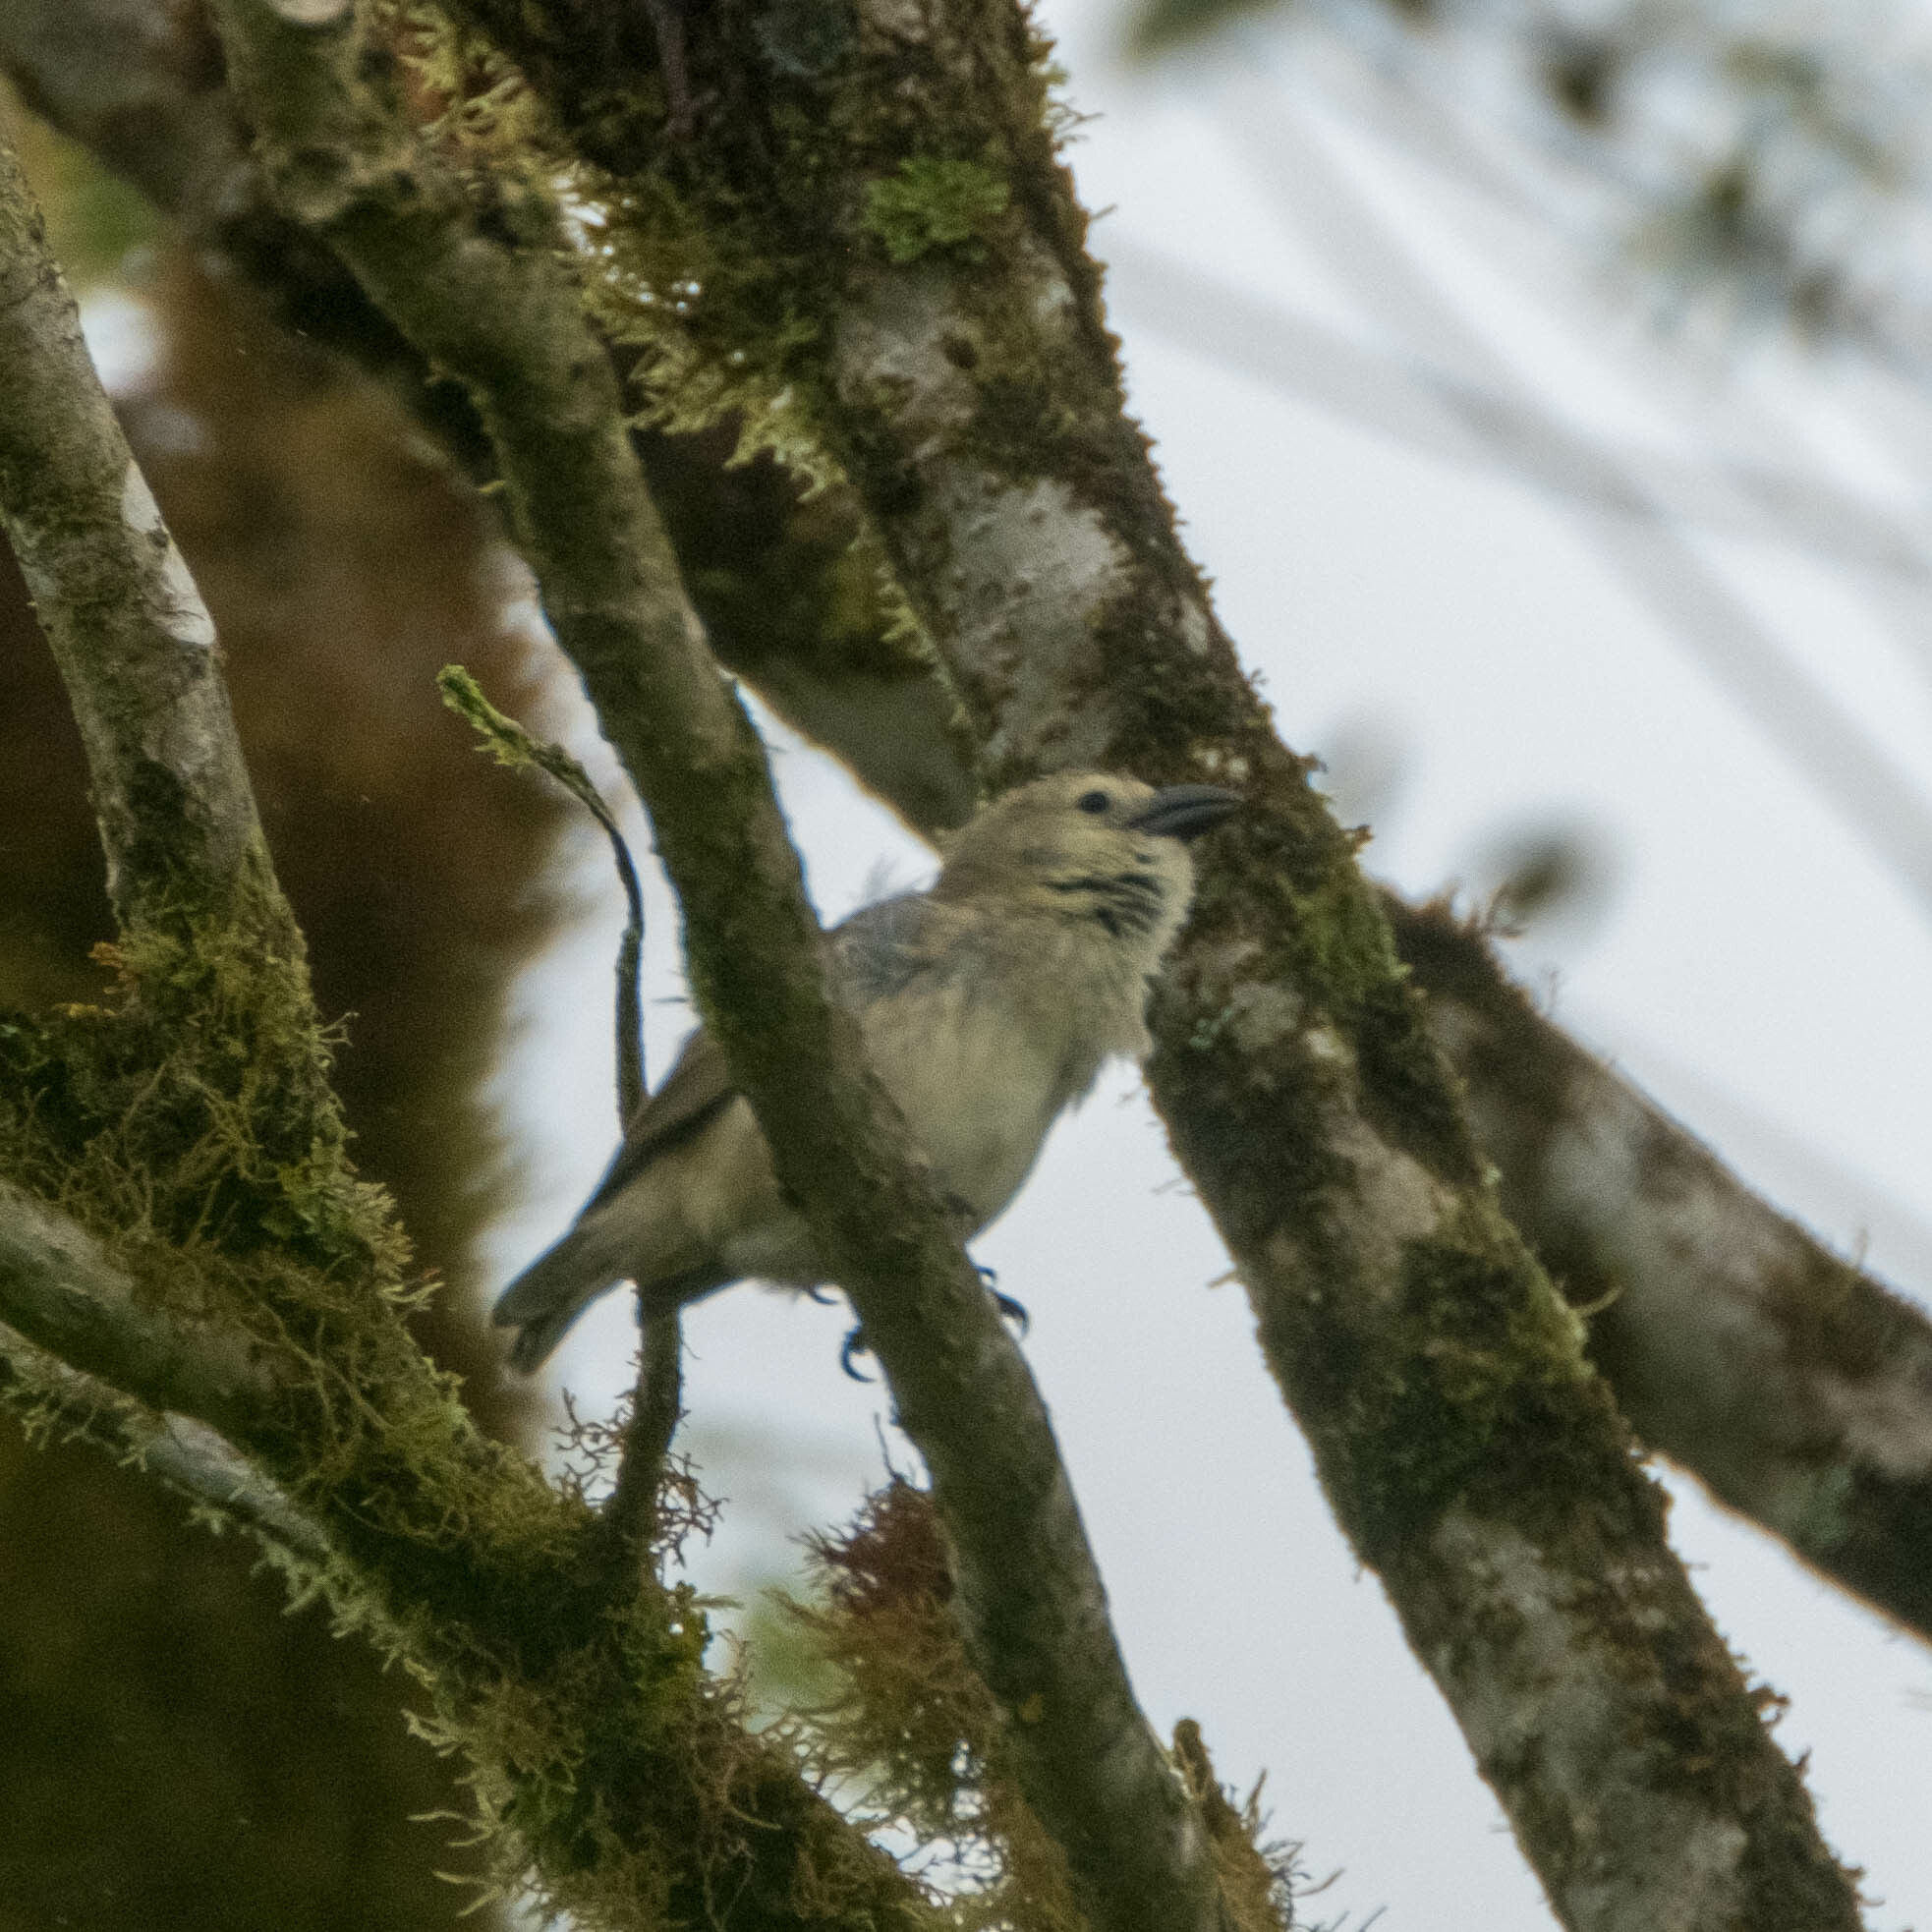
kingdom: Animalia
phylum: Chordata
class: Aves
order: Passeriformes
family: Thraupidae
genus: Camarhynchus
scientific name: Camarhynchus pallidus
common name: Woodpecker finch
